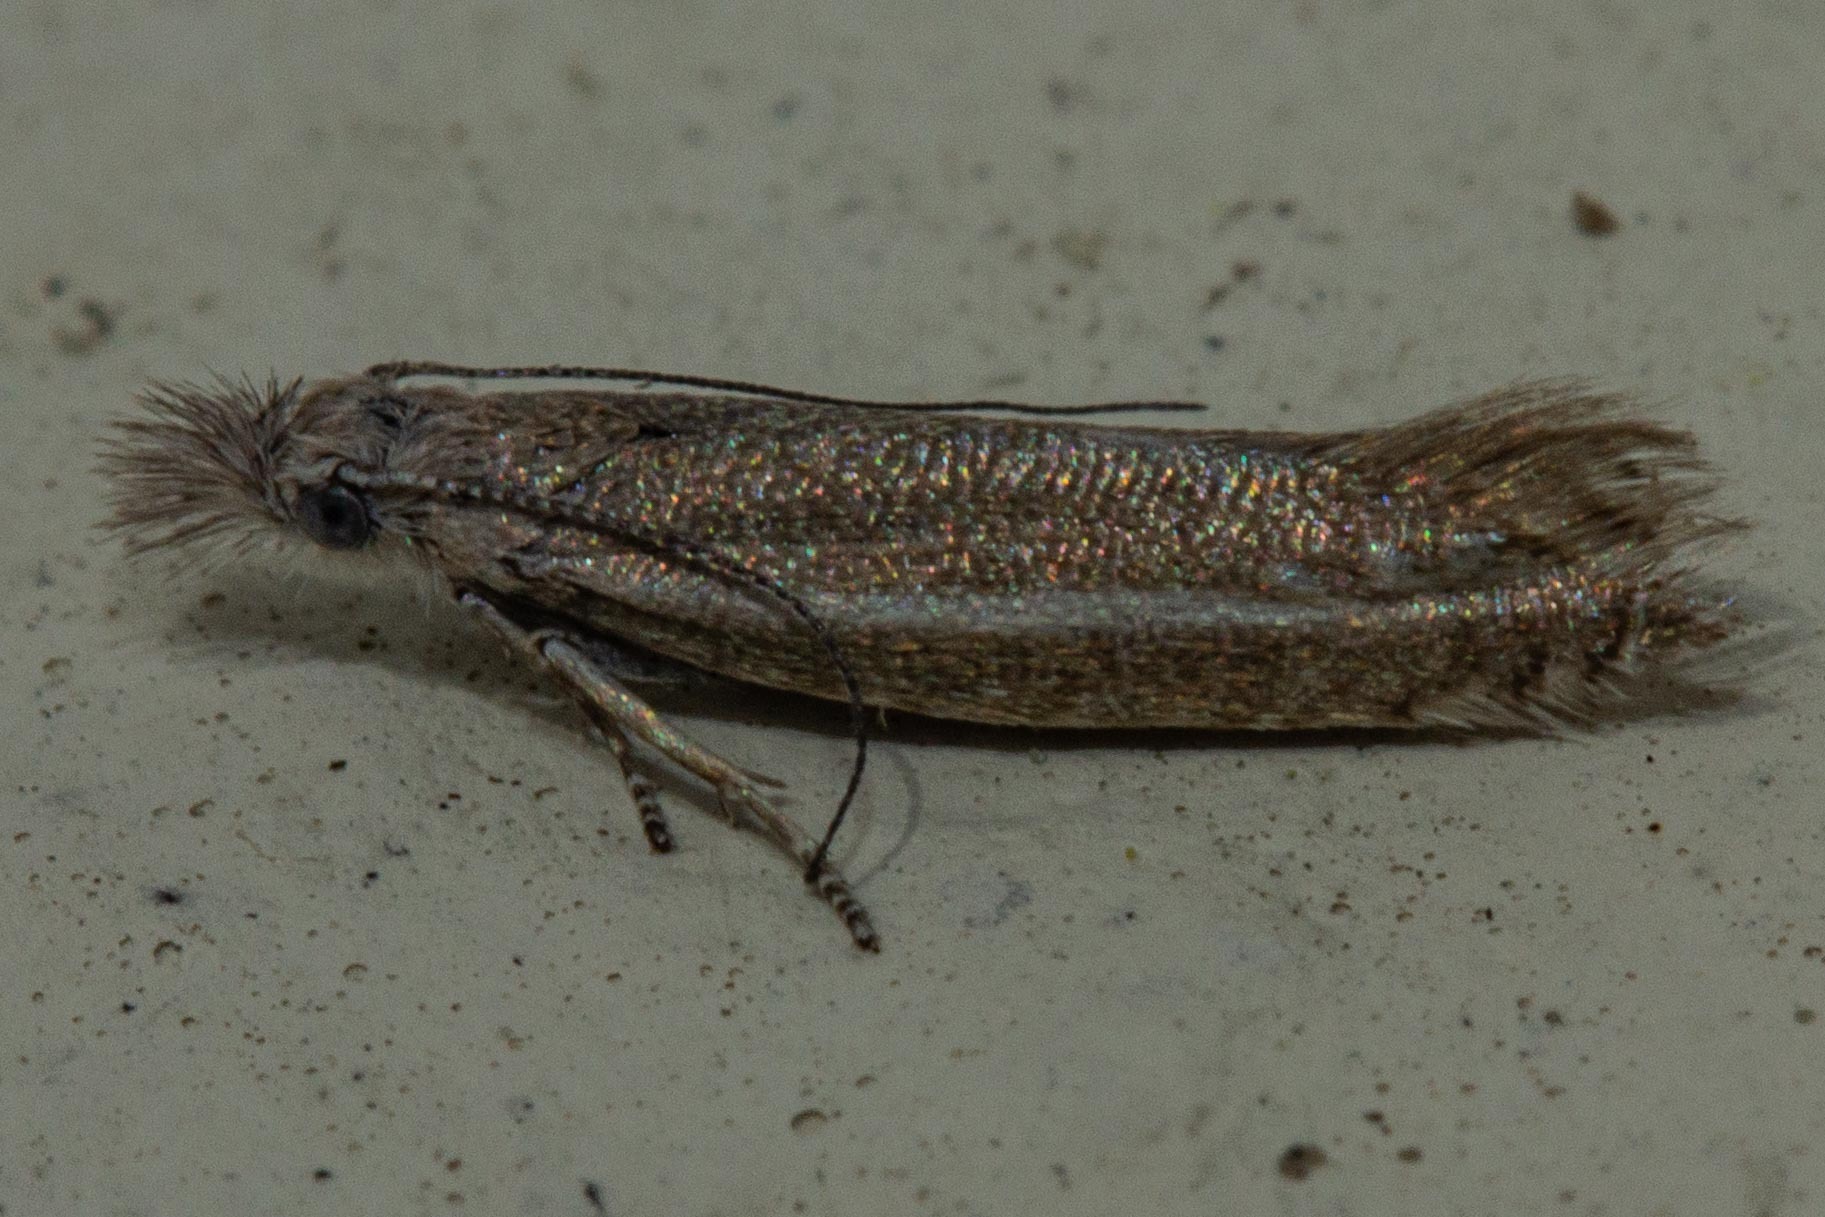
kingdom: Animalia
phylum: Arthropoda
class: Insecta
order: Lepidoptera
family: Glyphipterigidae
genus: Glyphipterix
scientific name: Glyphipterix barbata
